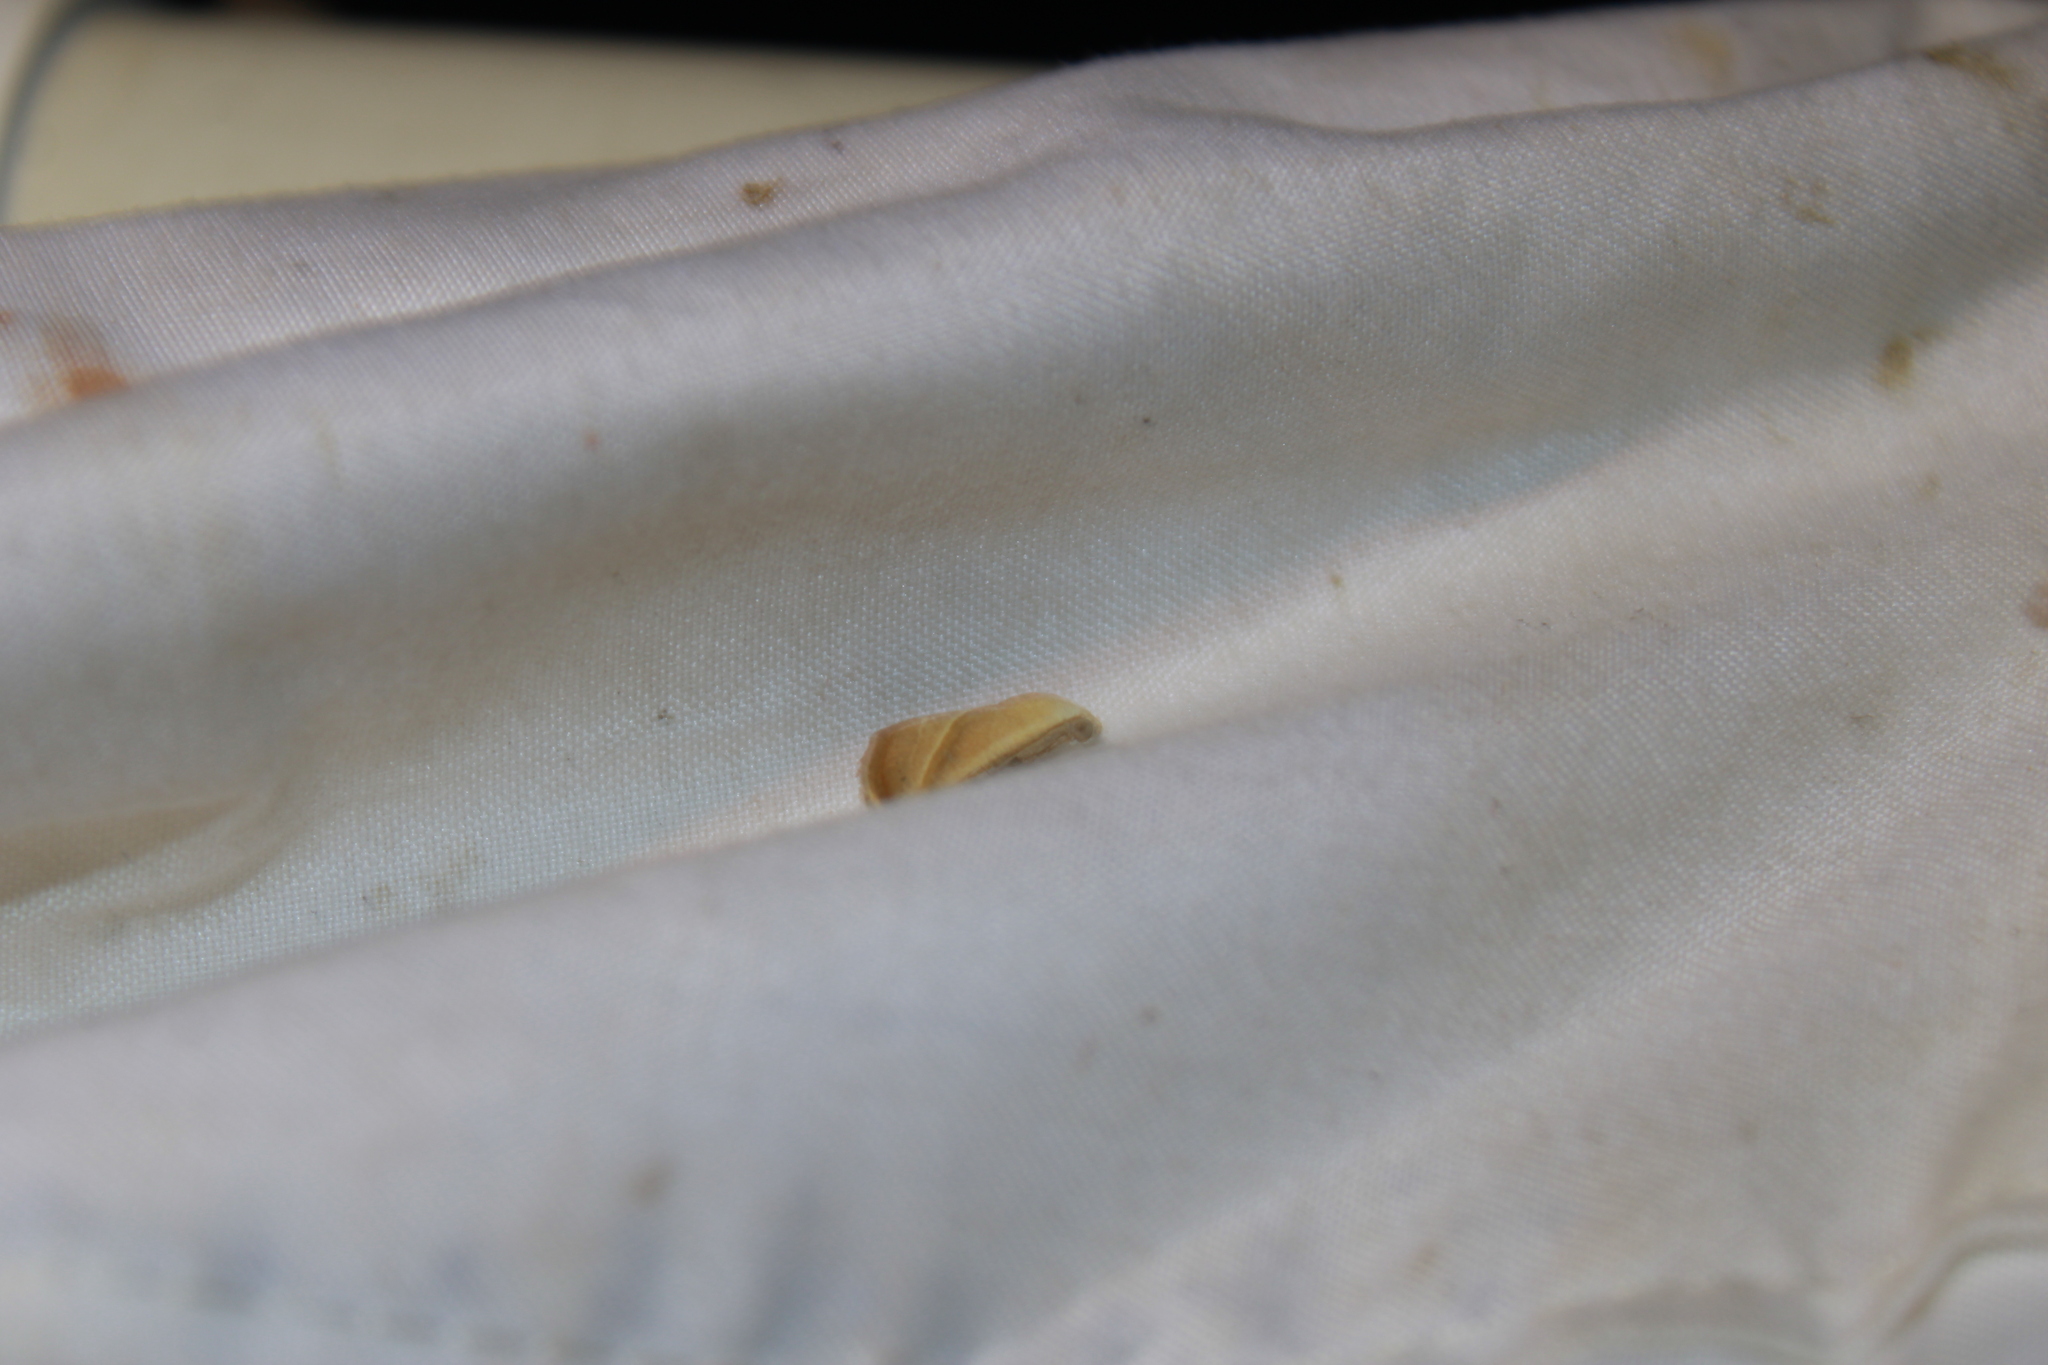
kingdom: Animalia
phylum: Arthropoda
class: Insecta
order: Lepidoptera
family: Noctuidae
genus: Eublemma
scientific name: Eublemma recta
